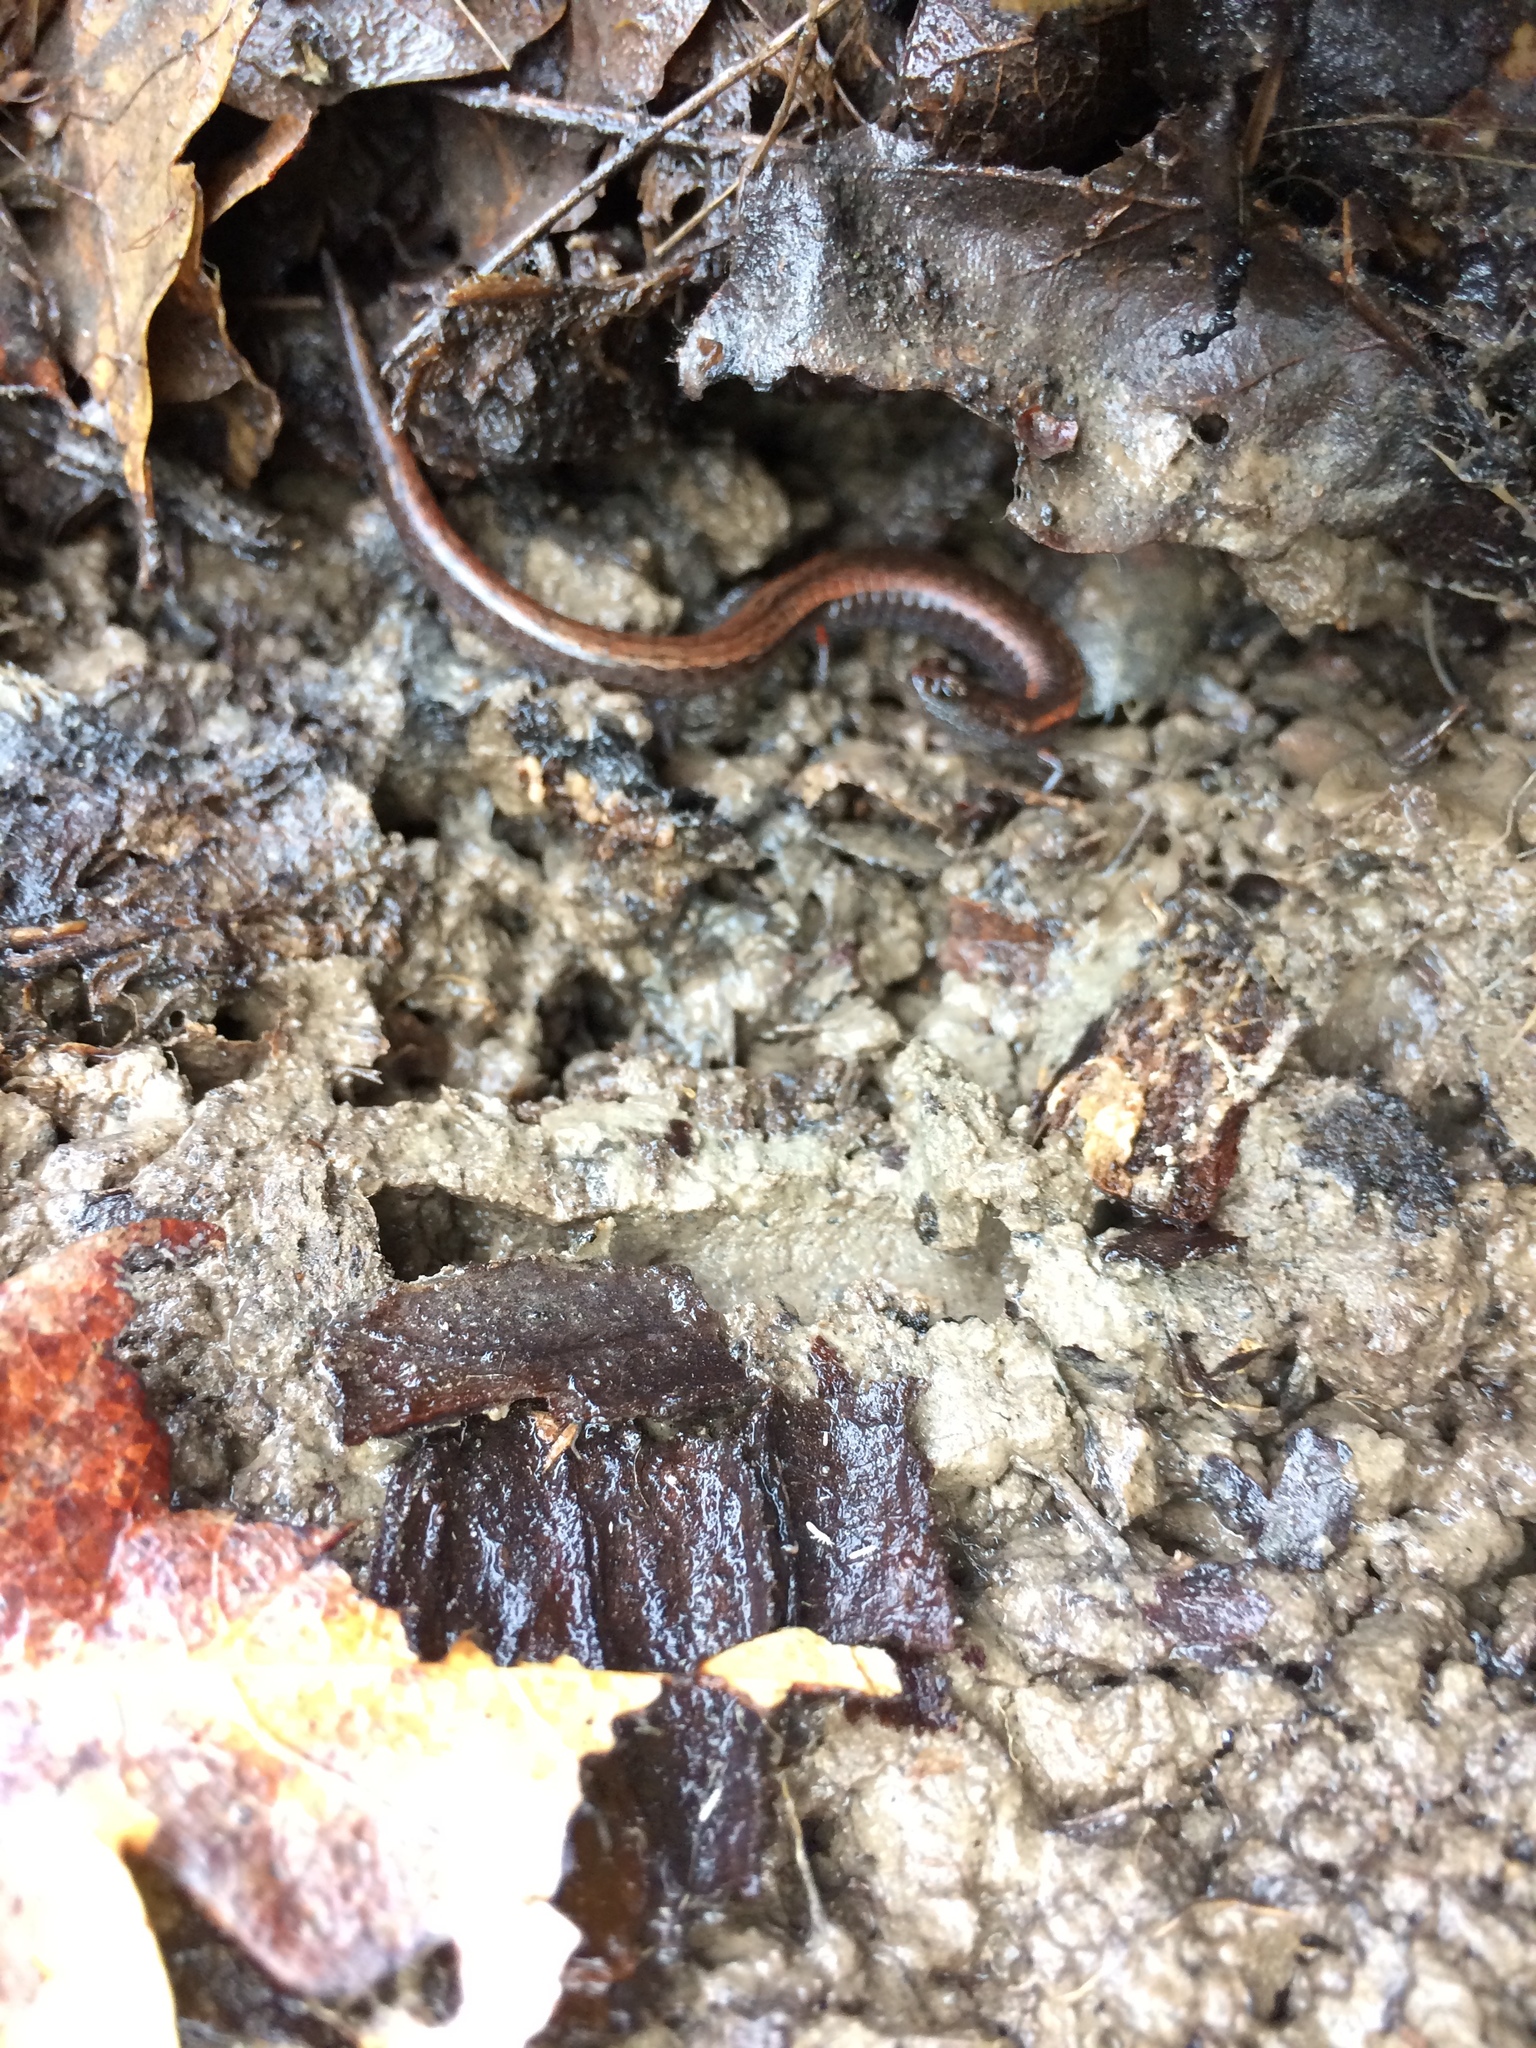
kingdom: Animalia
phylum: Chordata
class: Amphibia
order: Caudata
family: Plethodontidae
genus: Batrachoseps
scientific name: Batrachoseps attenuatus
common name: California slender salamander
